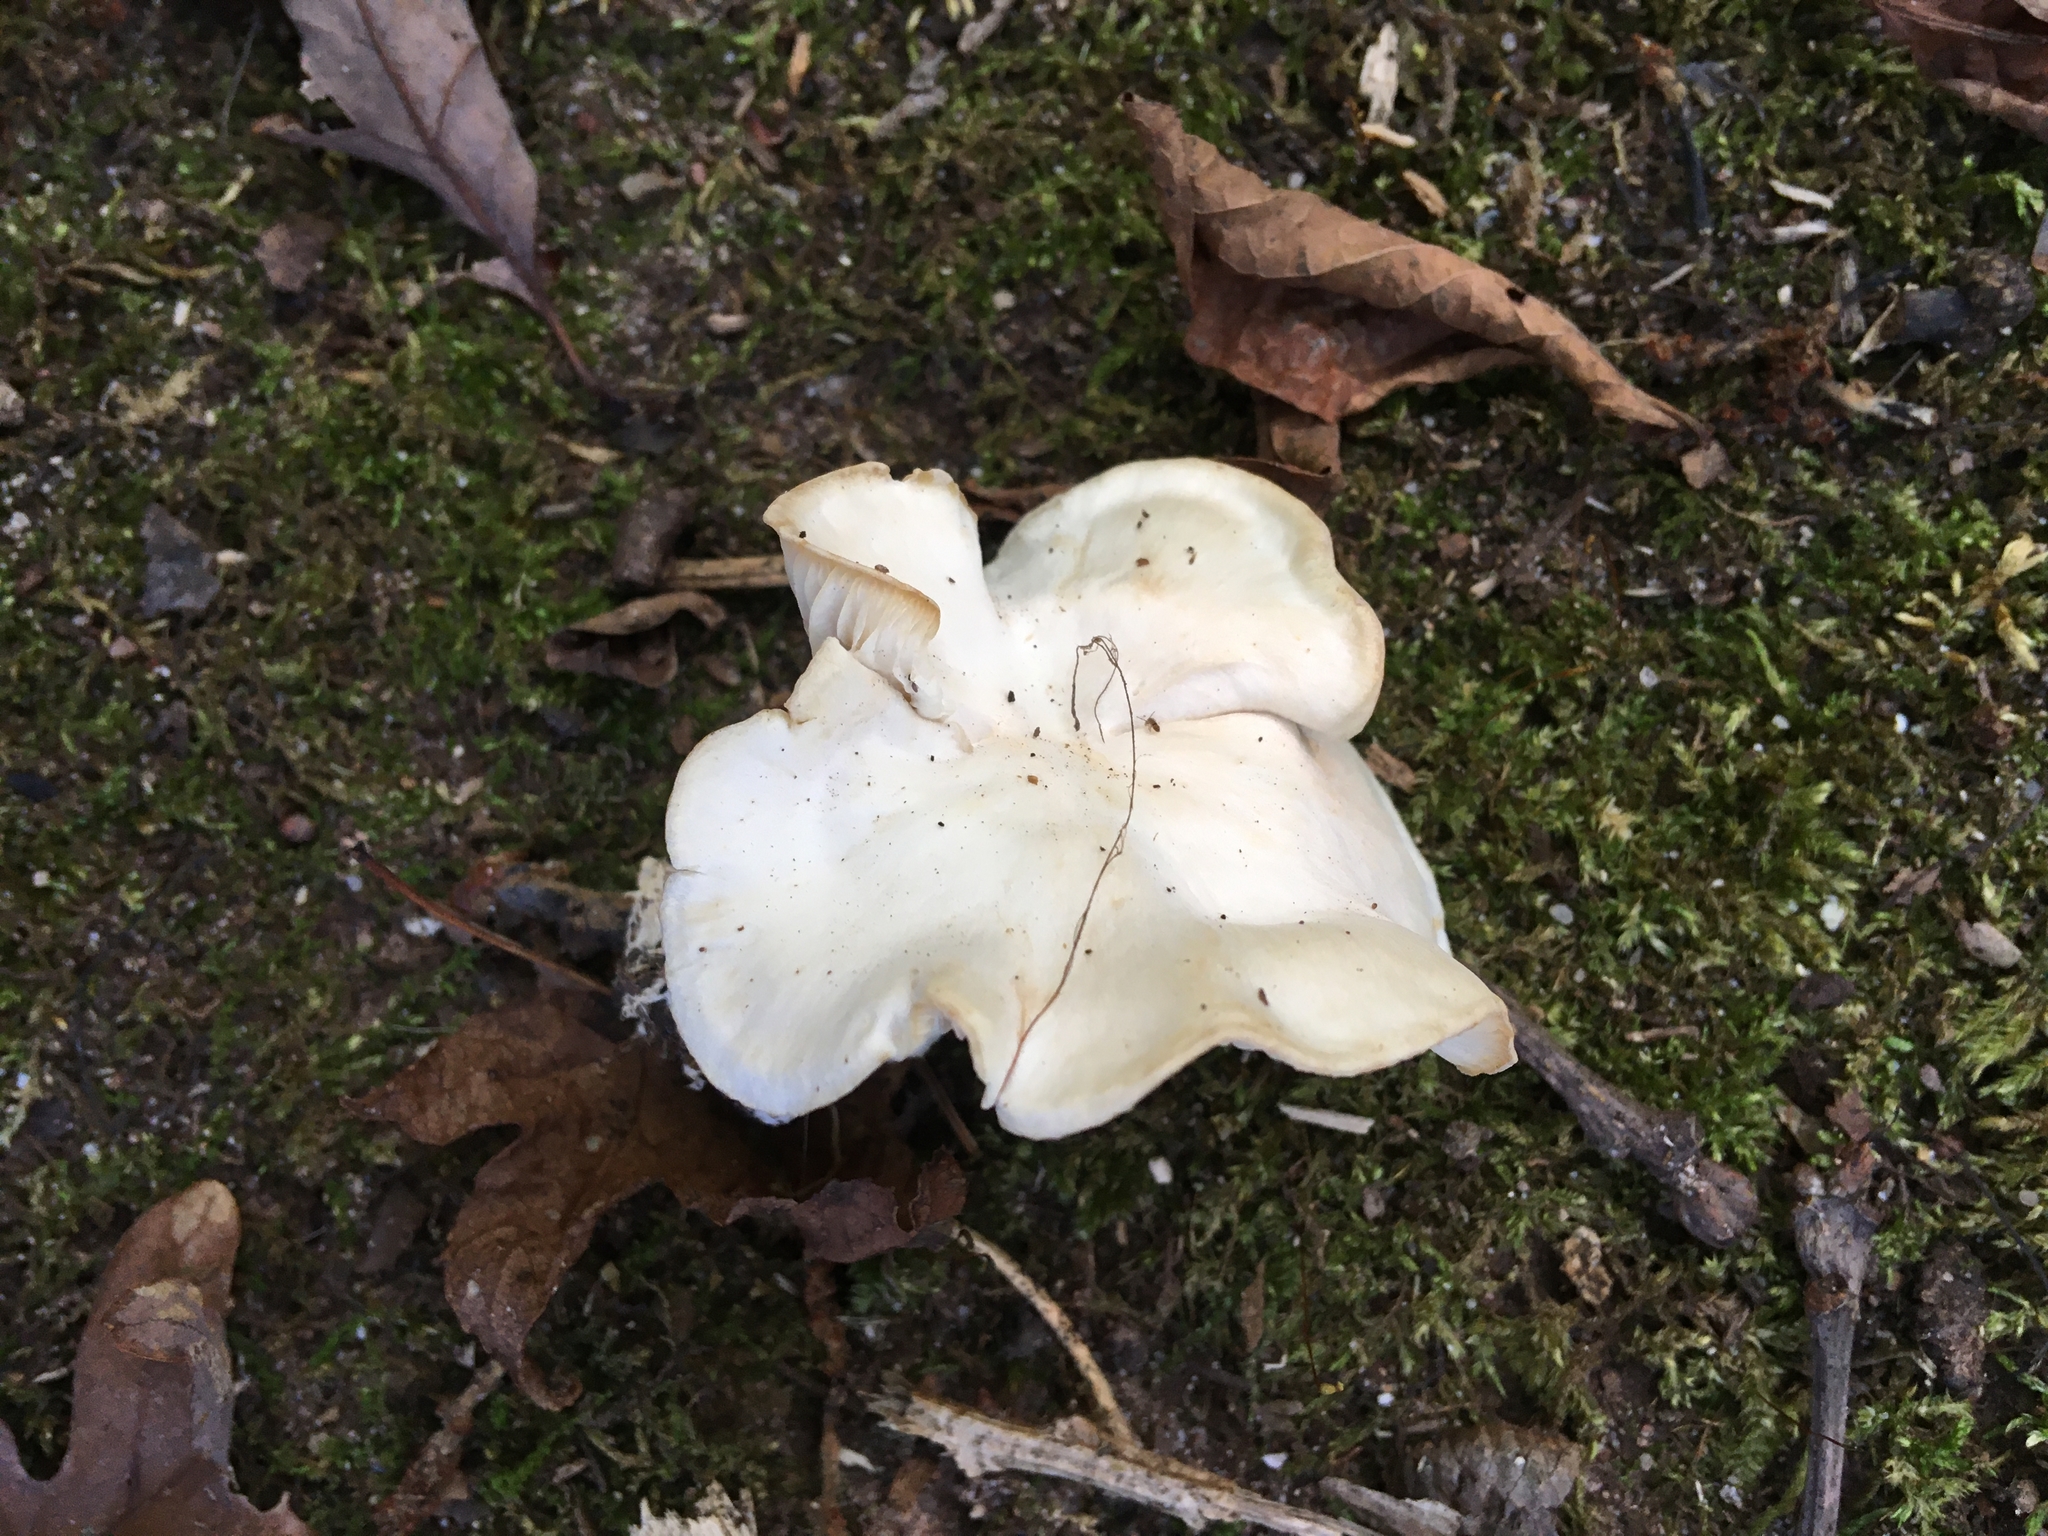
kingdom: Fungi
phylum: Basidiomycota
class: Agaricomycetes
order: Agaricales
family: Lyophyllaceae
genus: Gerhardtia
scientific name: Gerhardtia highlandensis
